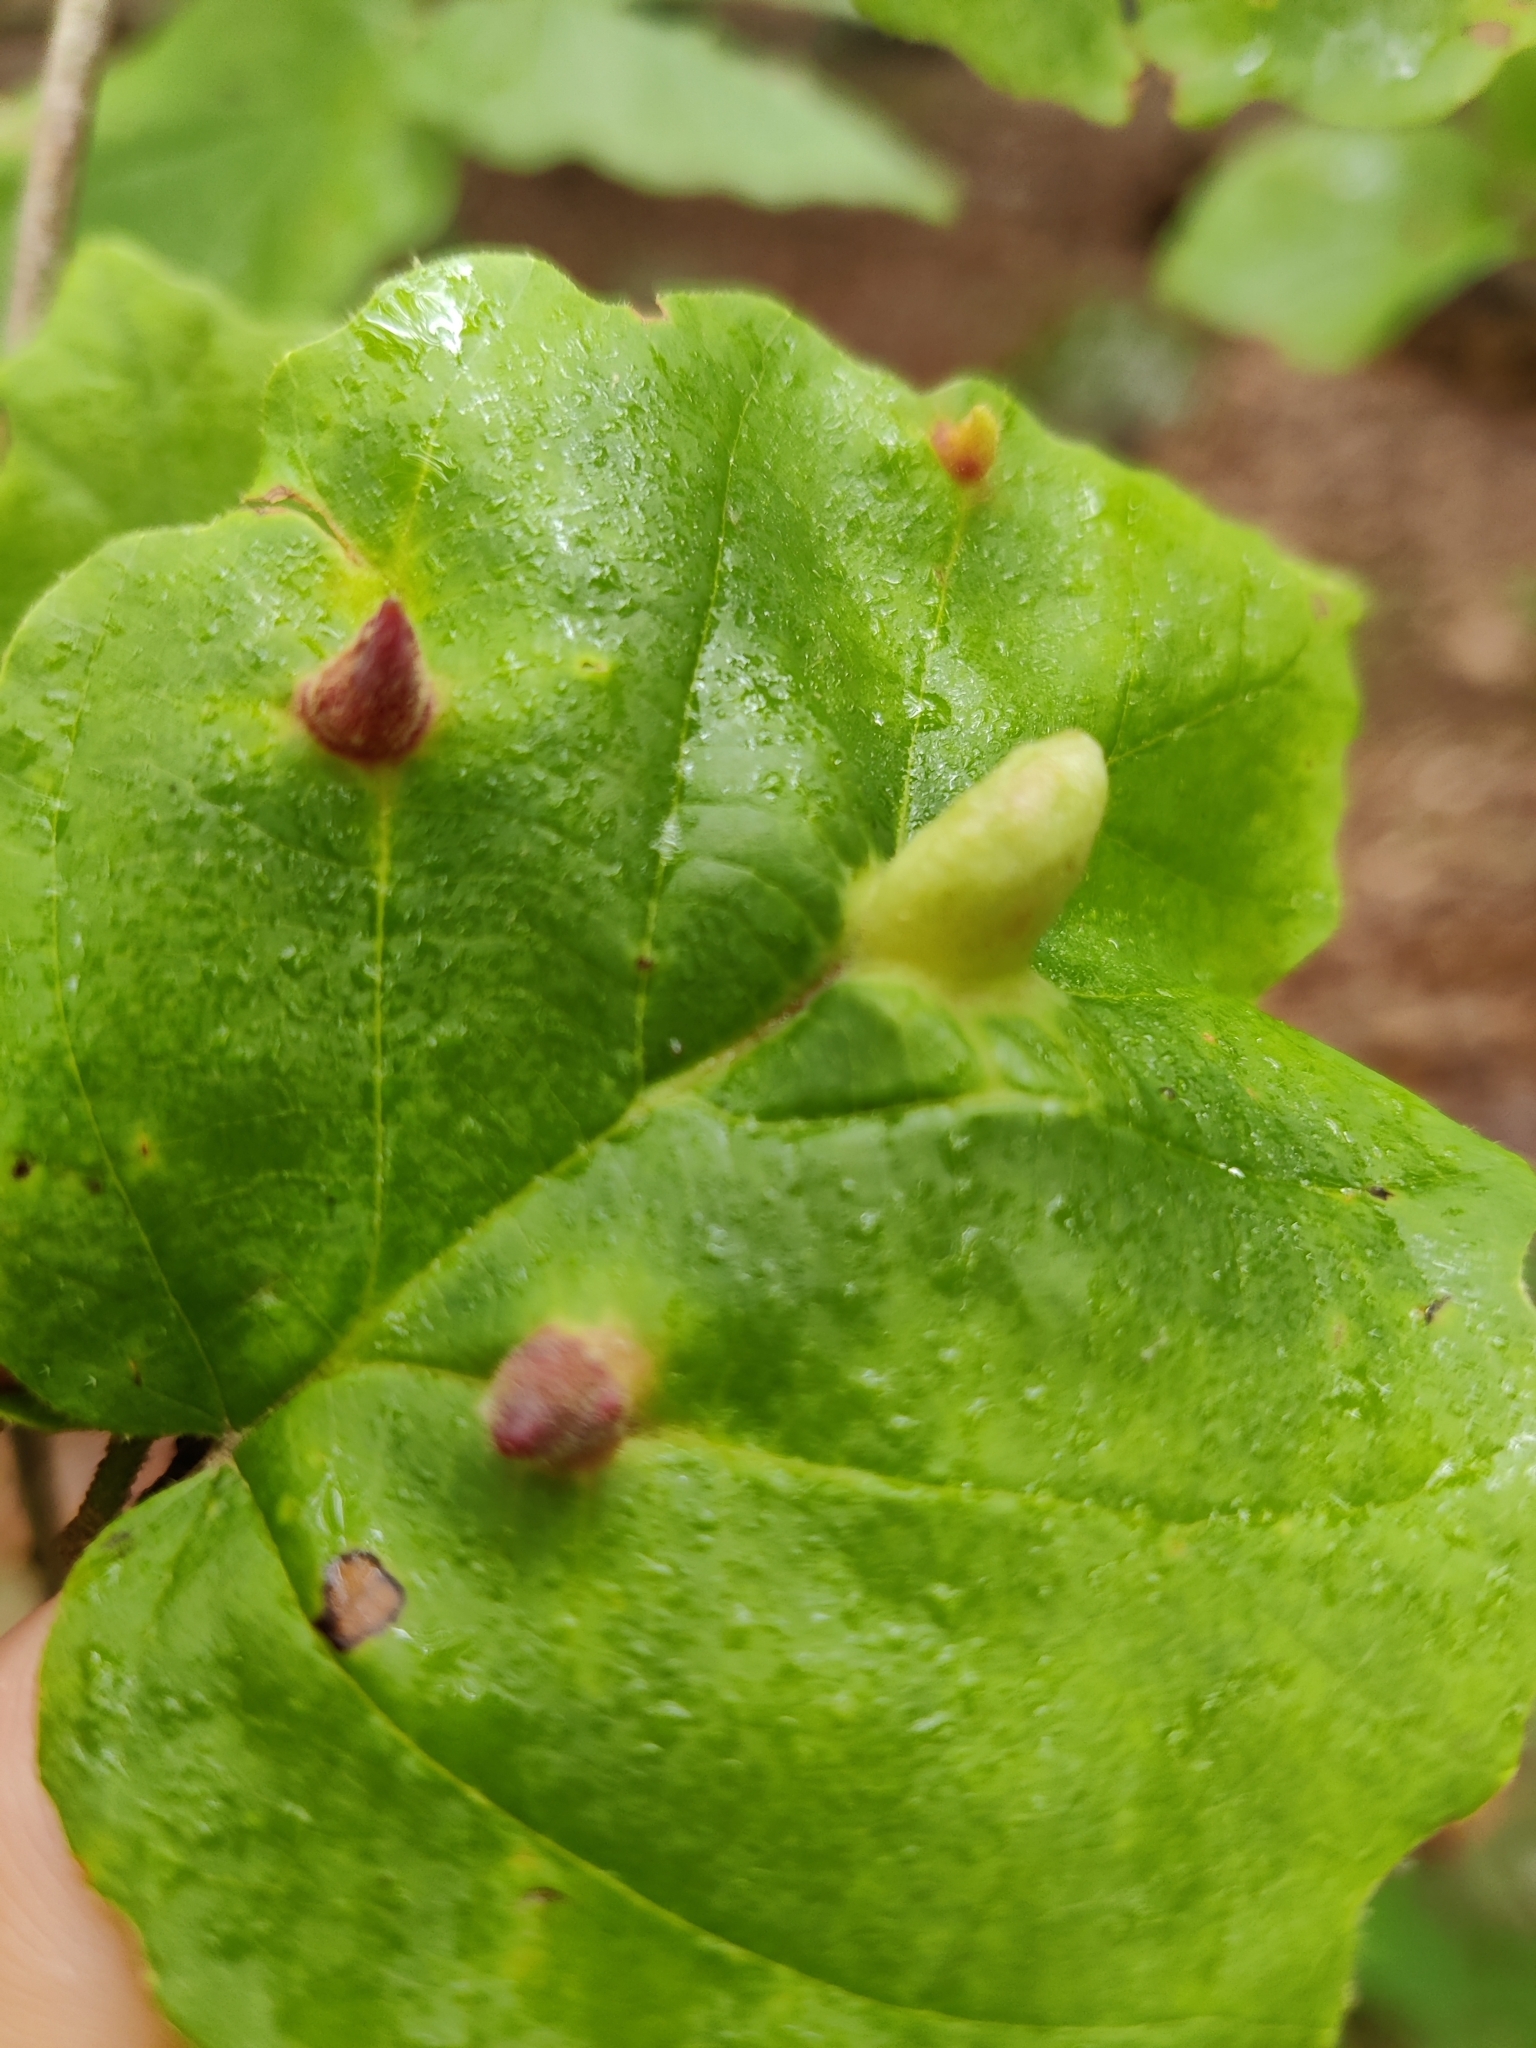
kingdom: Animalia
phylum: Arthropoda
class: Insecta
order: Hemiptera
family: Aphididae
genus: Hormaphis
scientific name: Hormaphis hamamelidis
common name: Witch-hazel cone gall aphid
